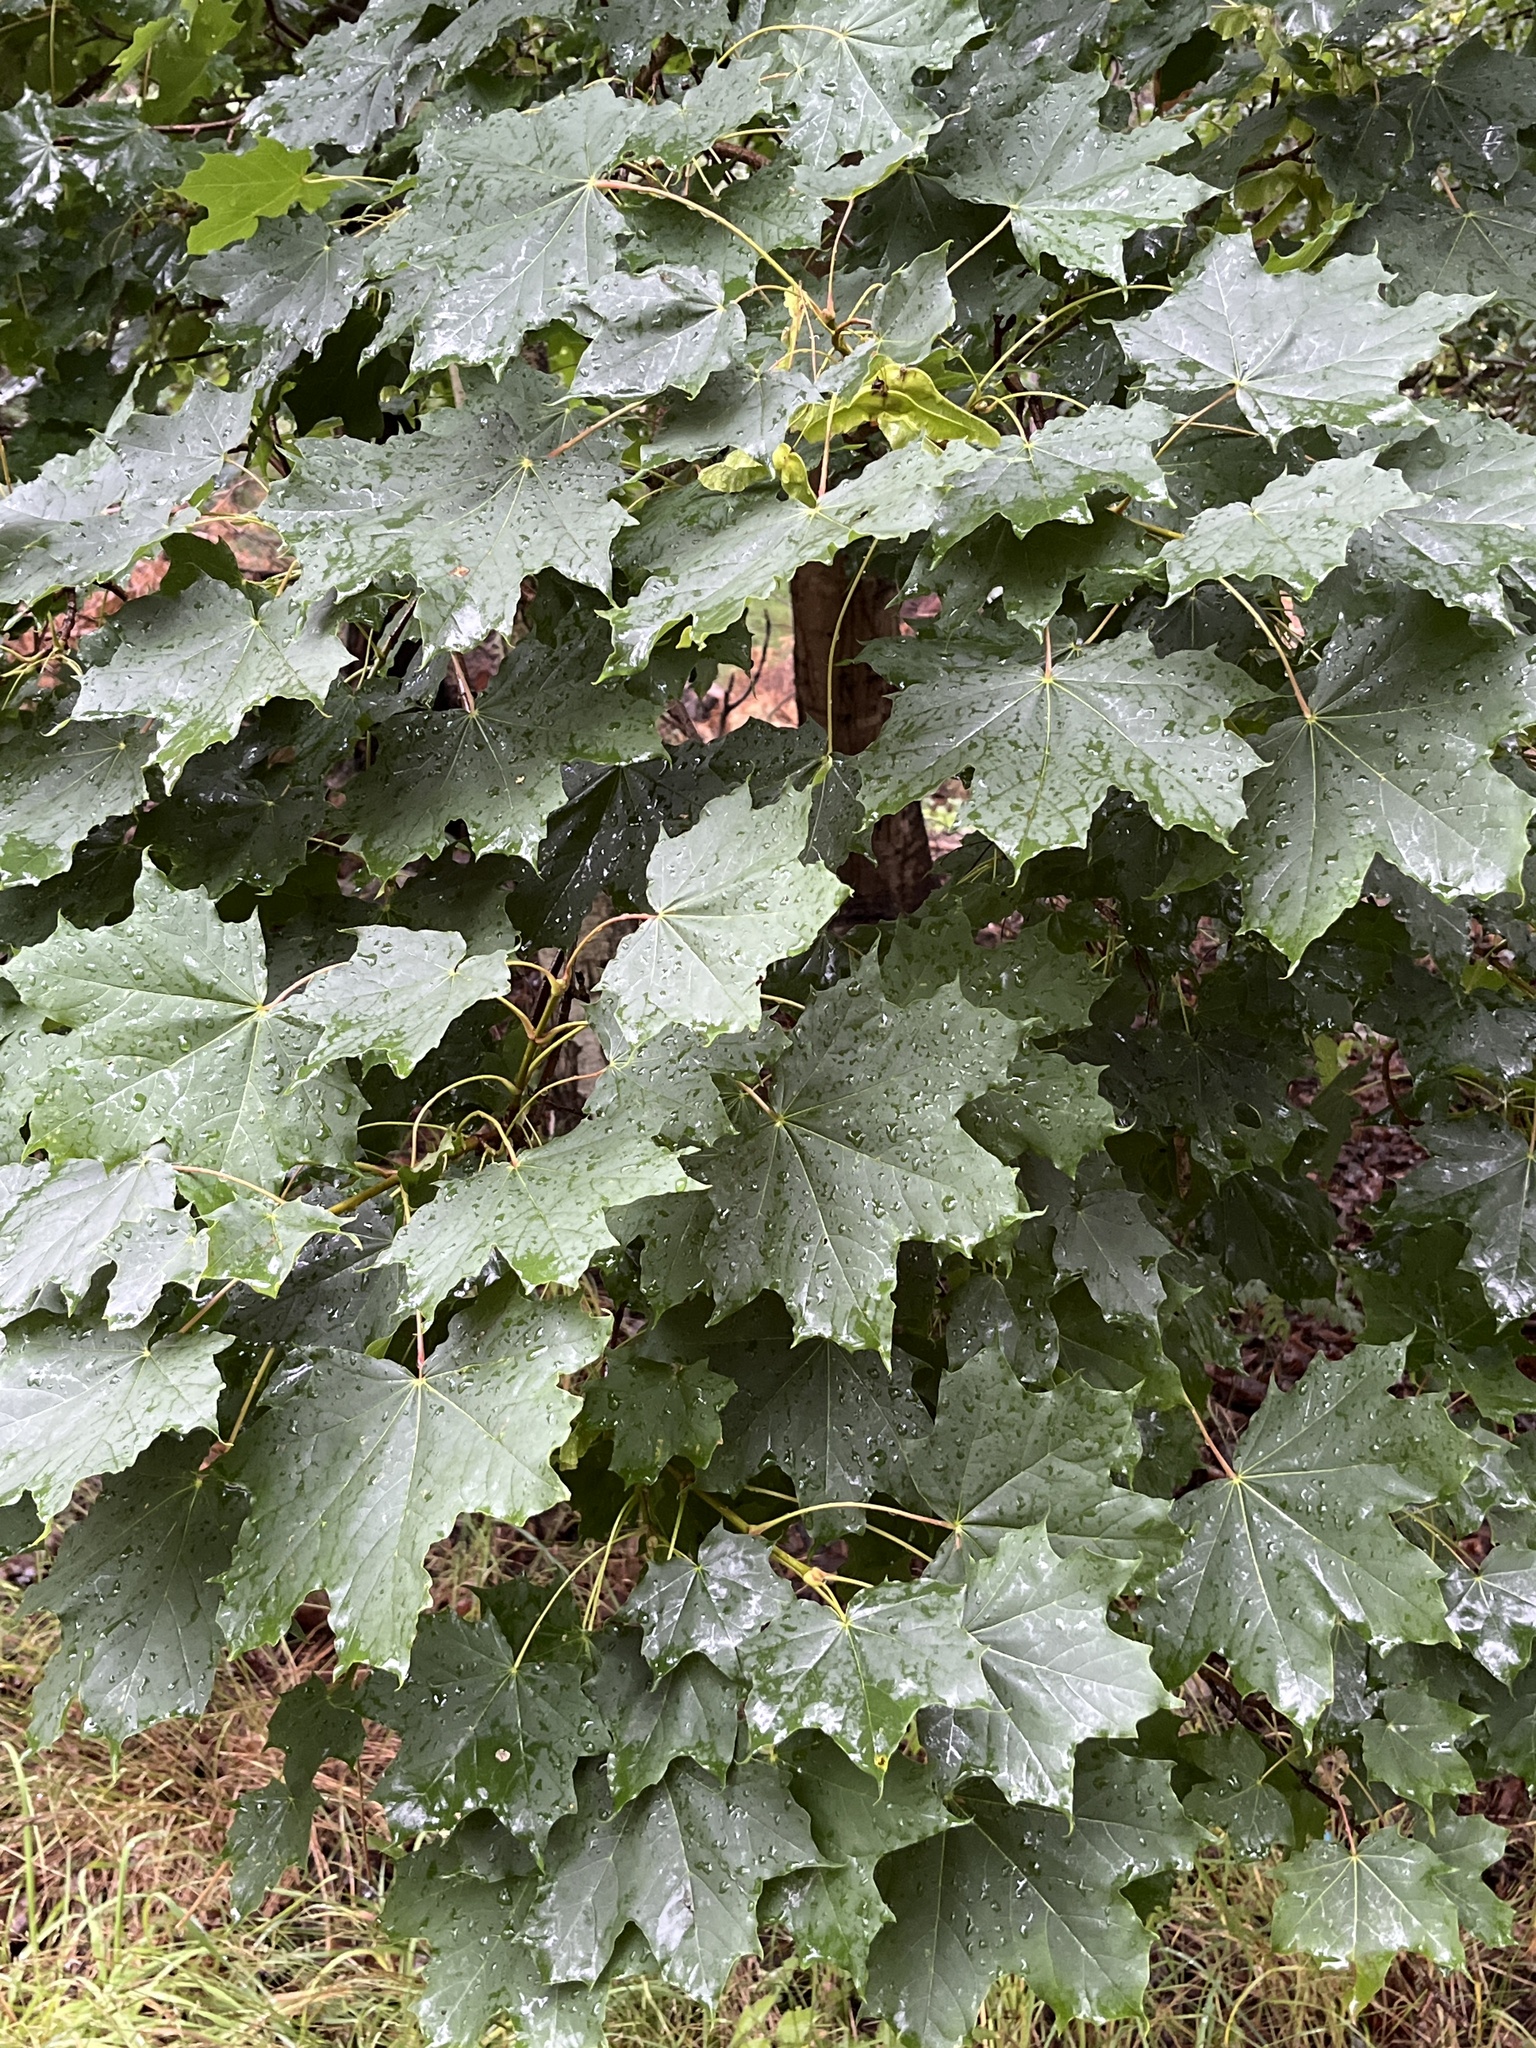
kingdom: Plantae
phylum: Tracheophyta
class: Magnoliopsida
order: Sapindales
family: Sapindaceae
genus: Acer
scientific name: Acer platanoides
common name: Norway maple
